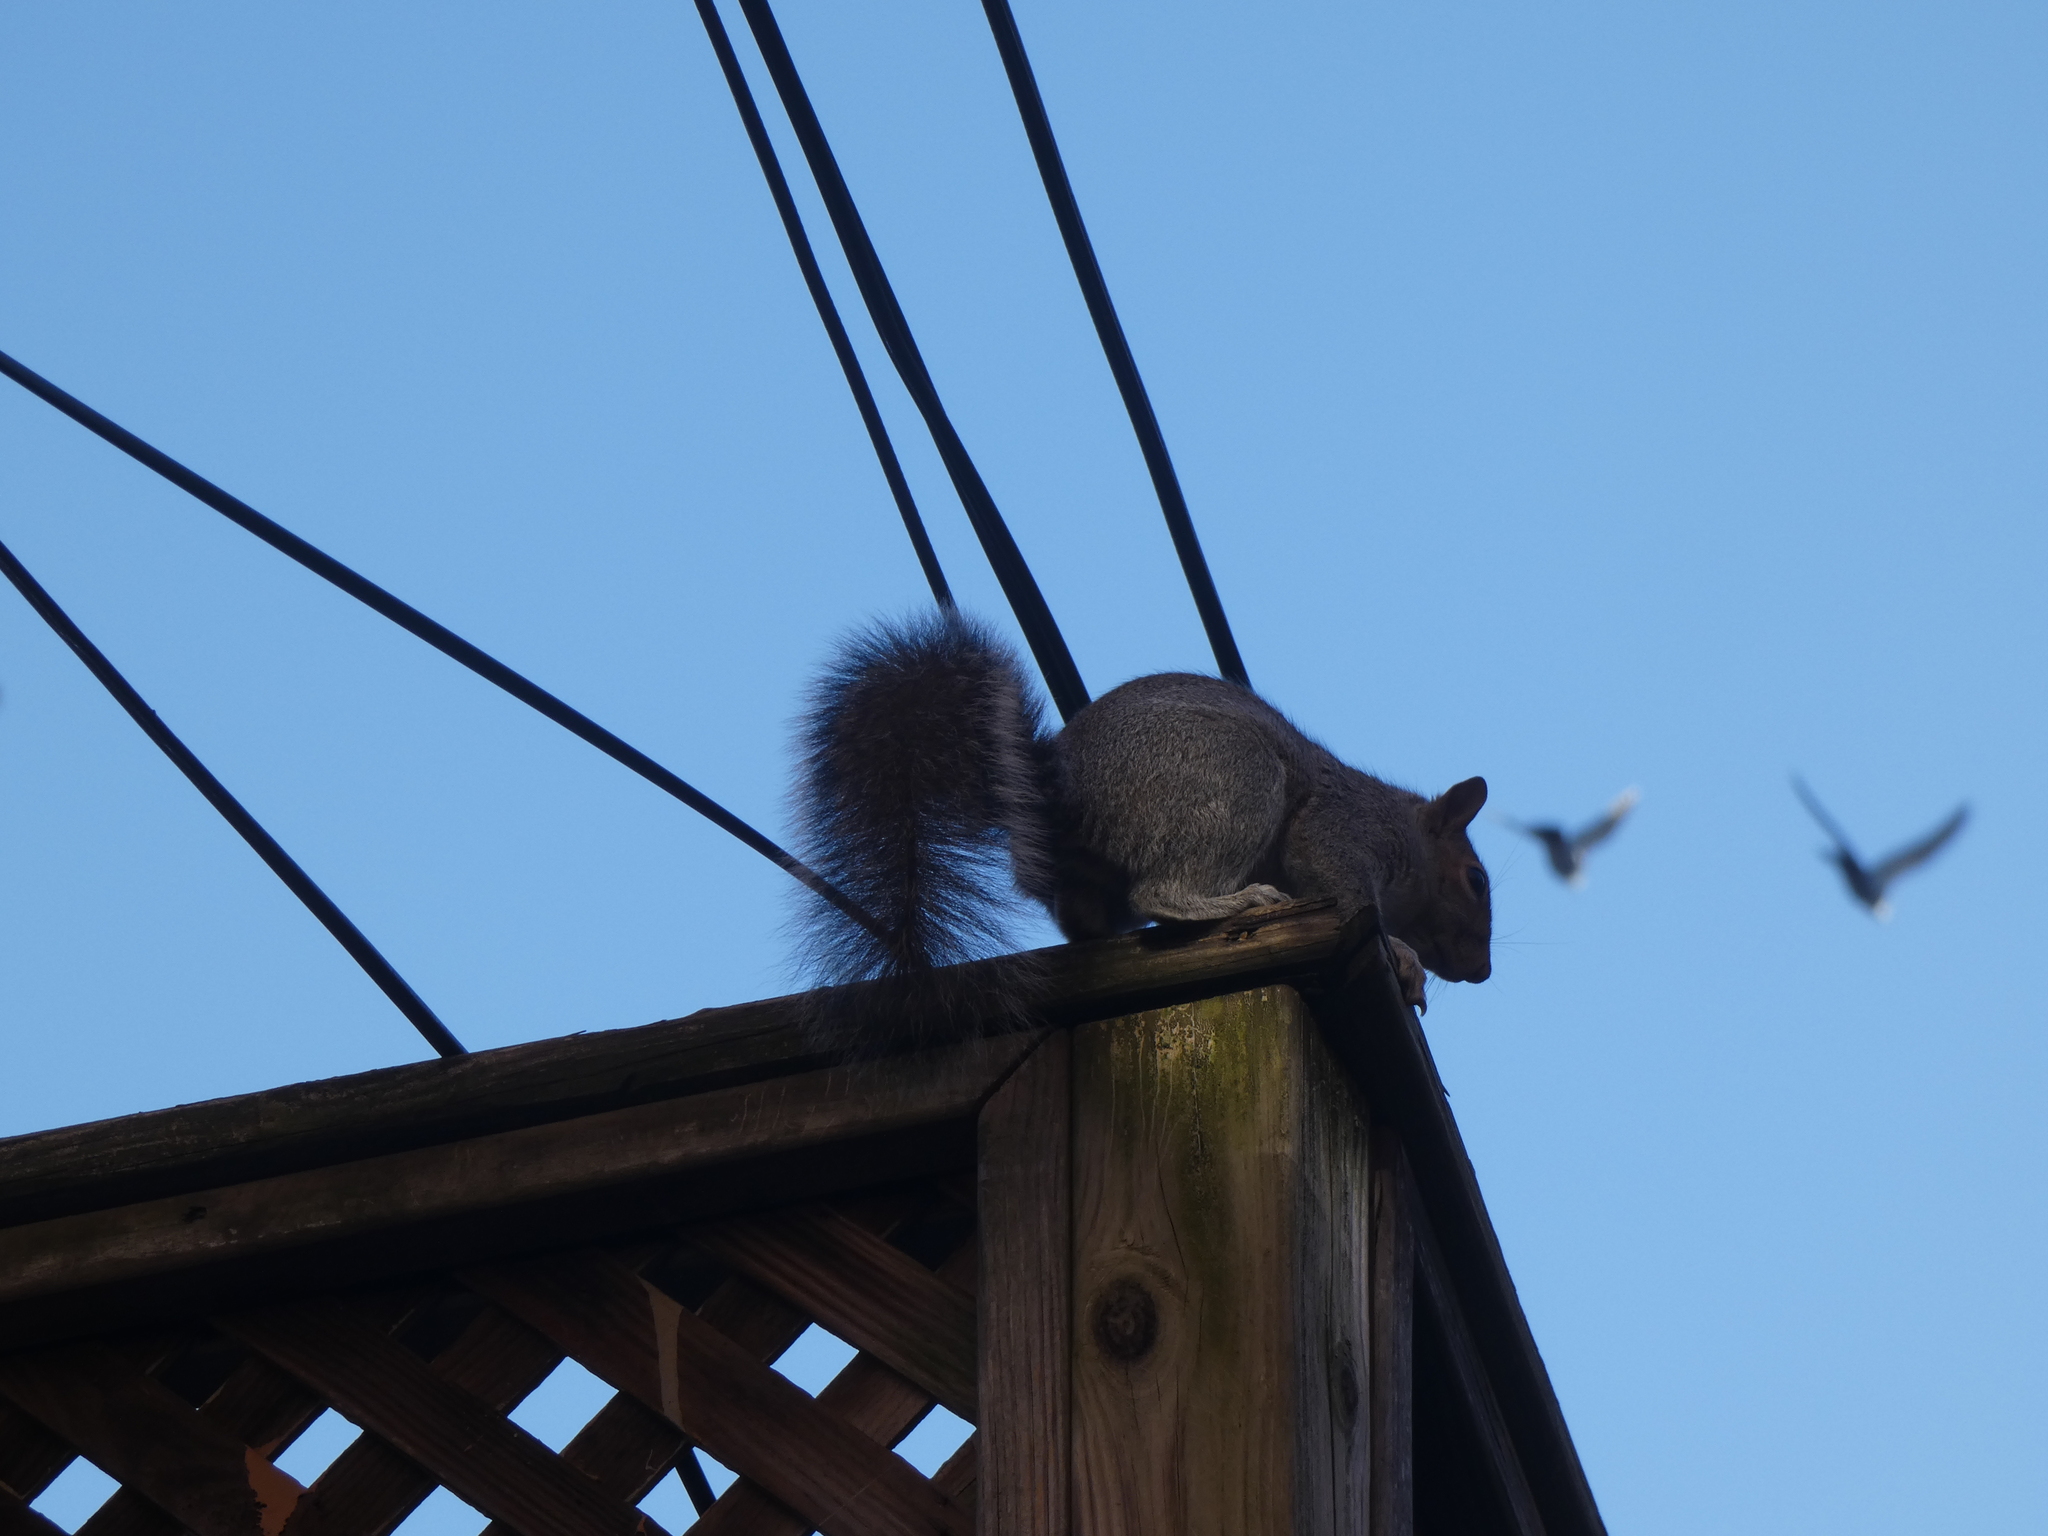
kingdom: Animalia
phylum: Chordata
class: Mammalia
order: Rodentia
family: Sciuridae
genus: Sciurus
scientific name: Sciurus carolinensis
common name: Eastern gray squirrel
